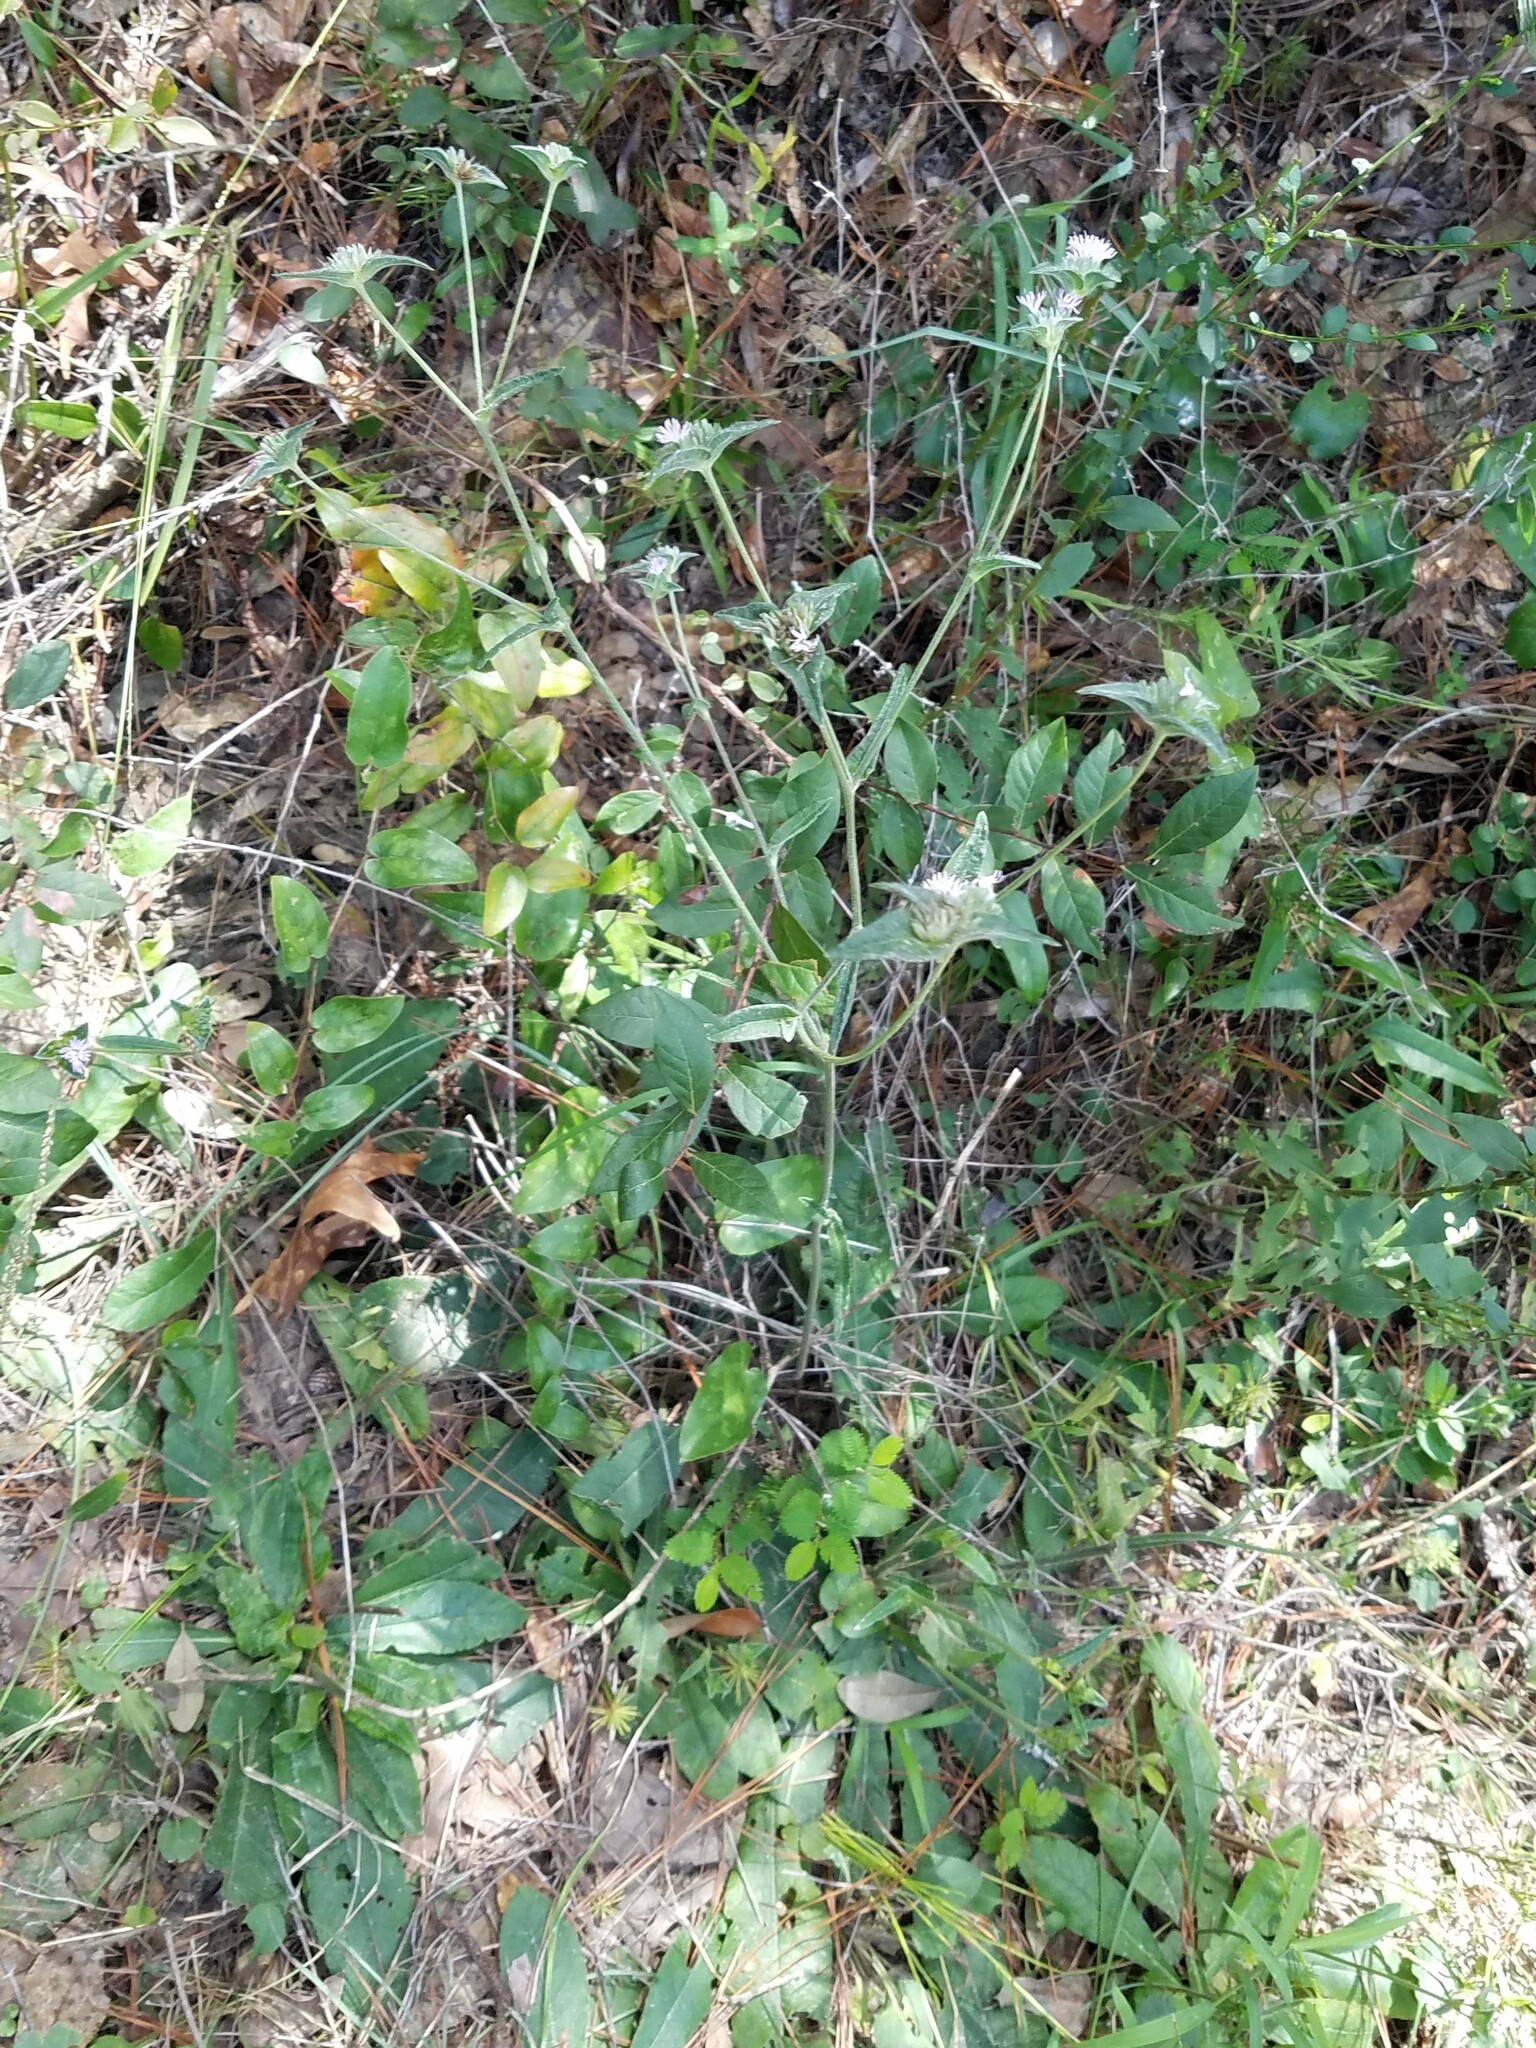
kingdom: Plantae
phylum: Tracheophyta
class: Magnoliopsida
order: Asterales
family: Asteraceae
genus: Elephantopus
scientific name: Elephantopus elatus
